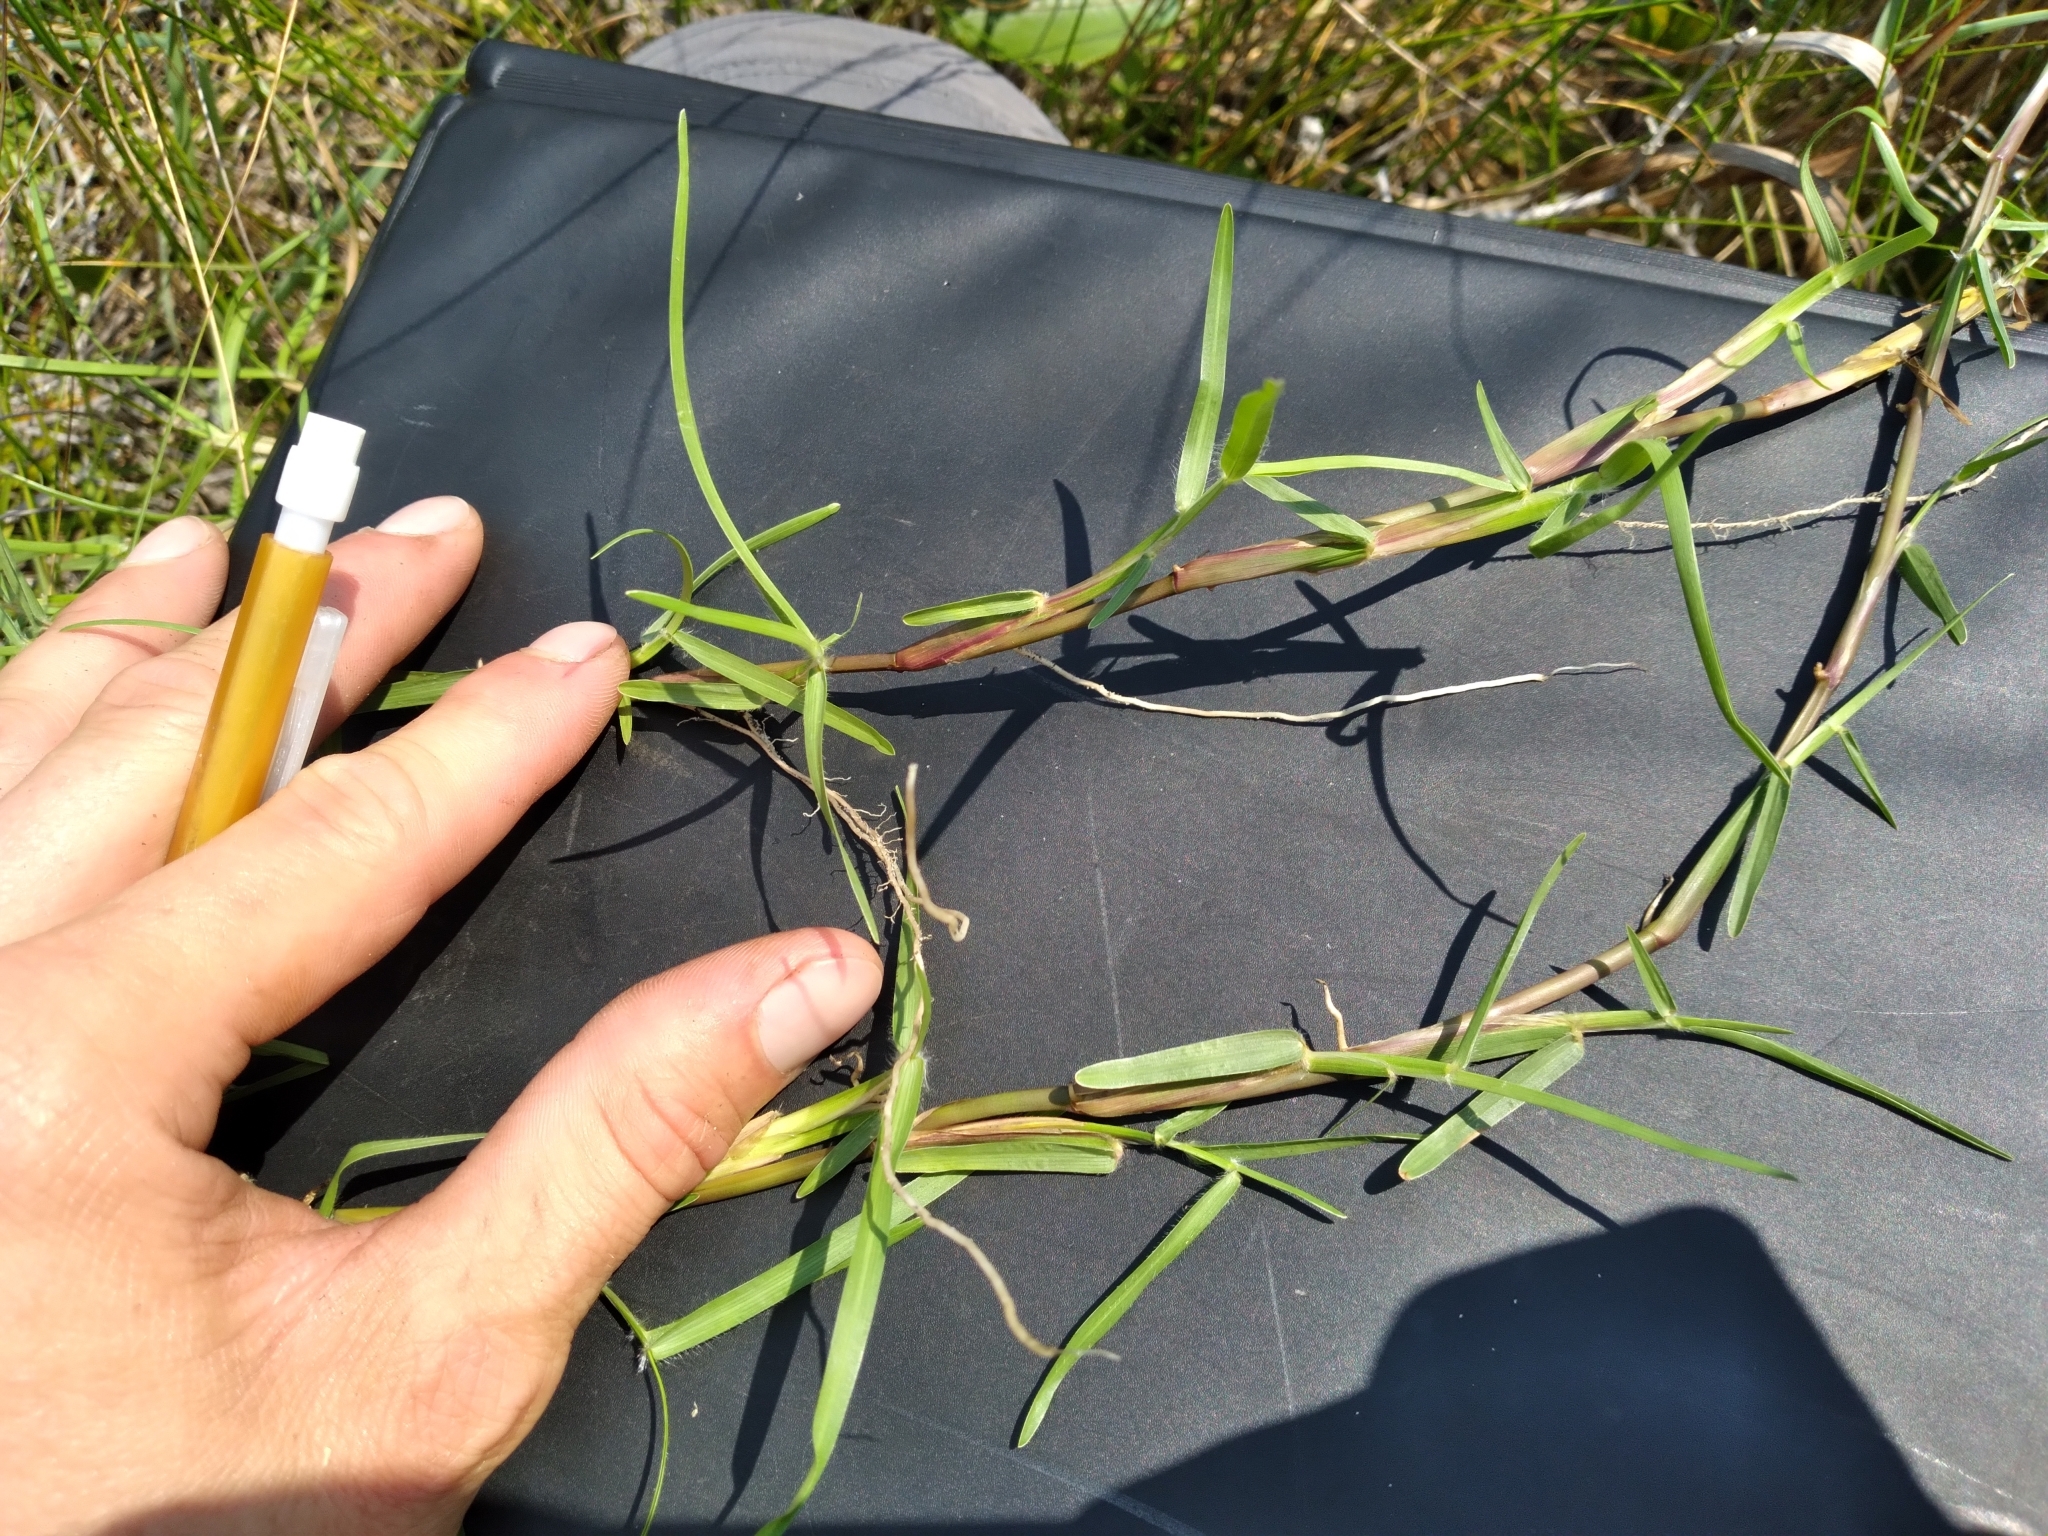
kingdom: Plantae
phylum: Tracheophyta
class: Liliopsida
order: Poales
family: Poaceae
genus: Stenotaphrum
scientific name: Stenotaphrum secundatum
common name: St. augustine grass
